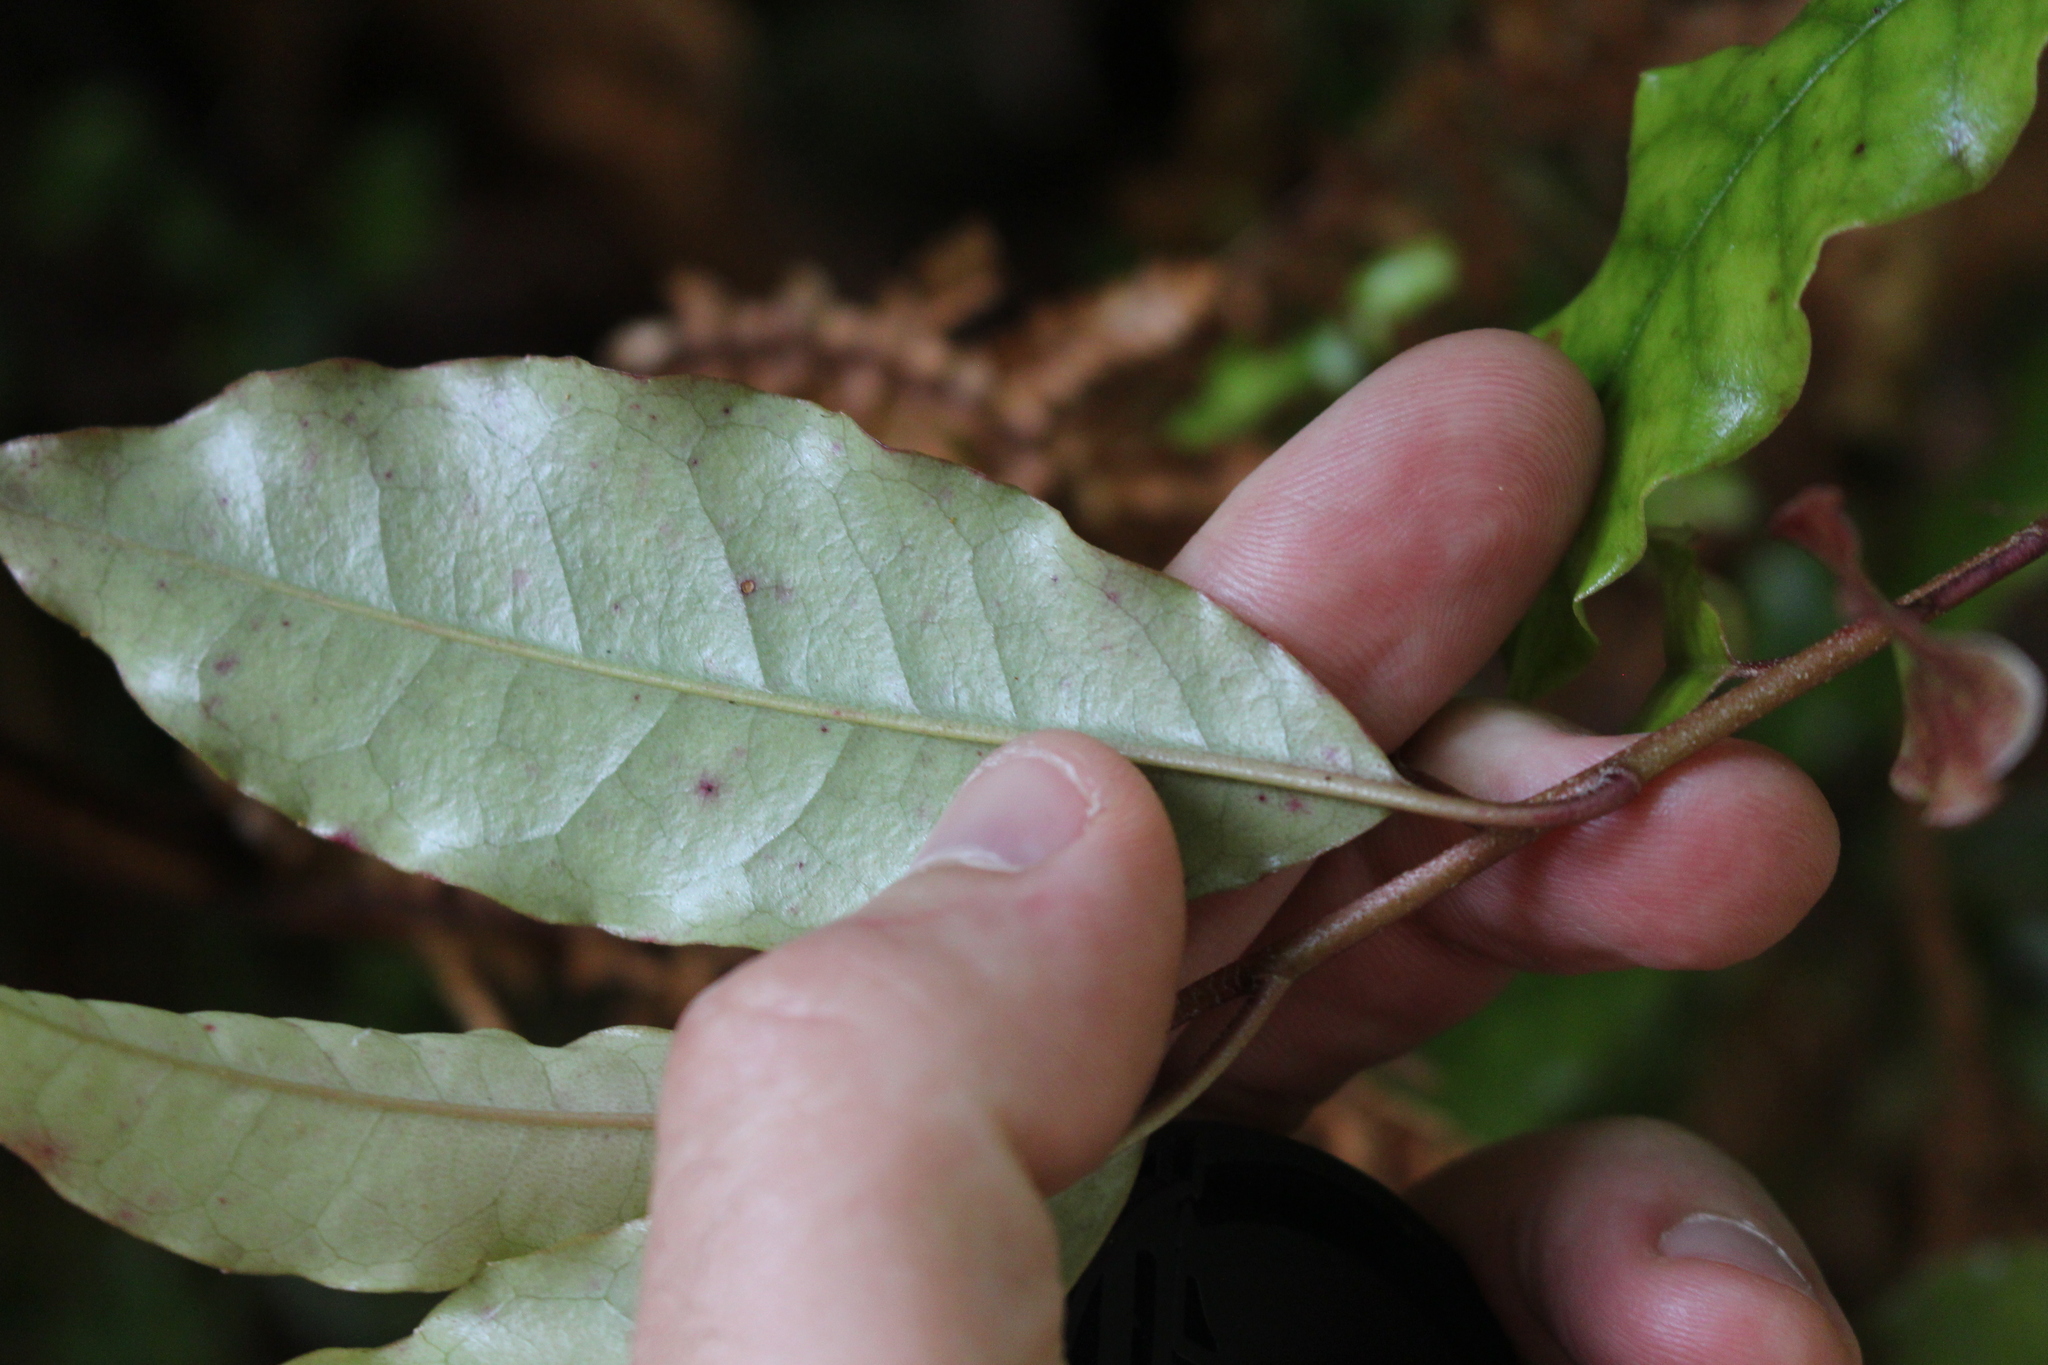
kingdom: Plantae
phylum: Tracheophyta
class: Magnoliopsida
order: Paracryphiales
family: Paracryphiaceae
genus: Quintinia
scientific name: Quintinia serrata
